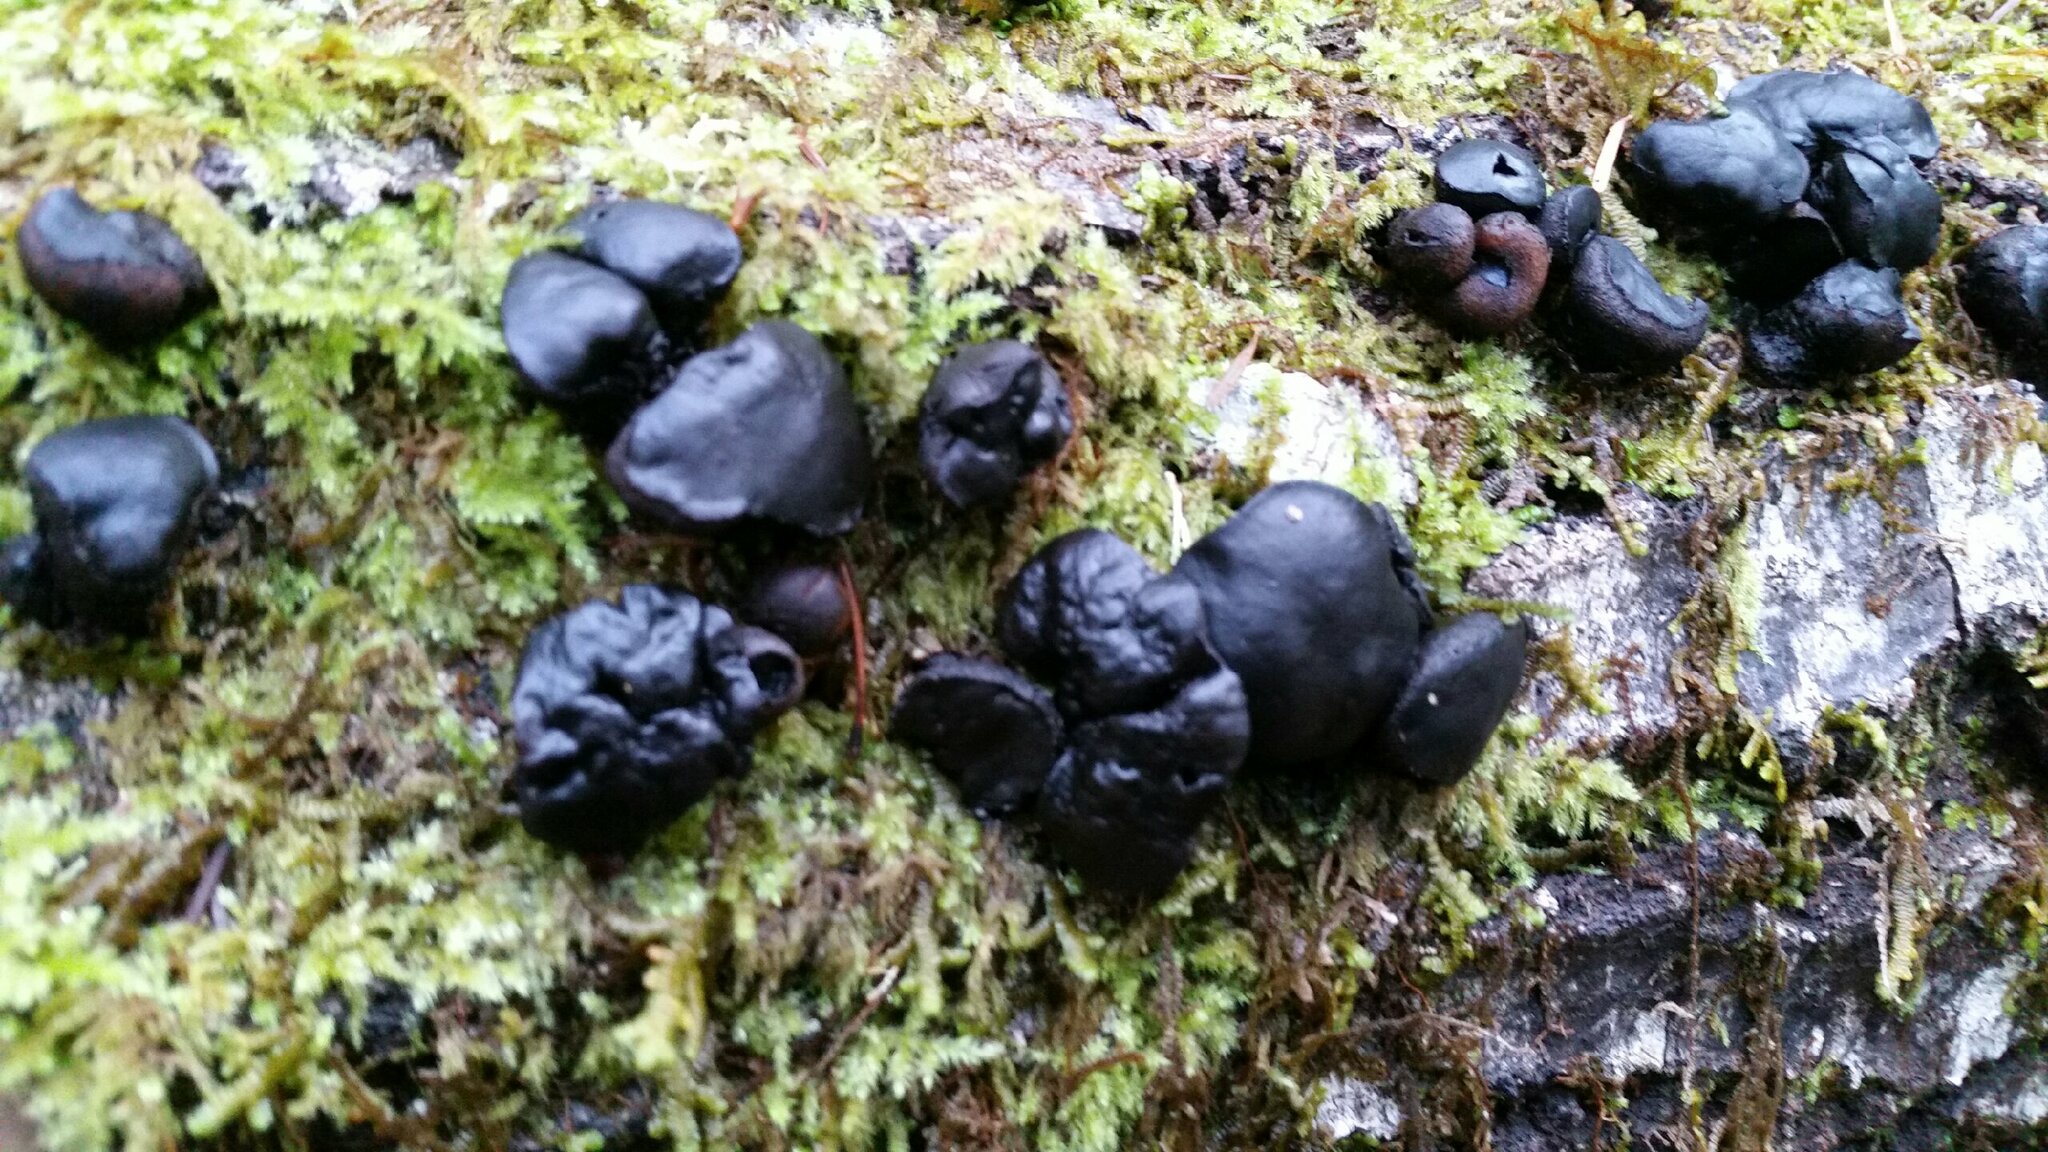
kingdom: Fungi
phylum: Ascomycota
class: Leotiomycetes
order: Phacidiales
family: Phacidiaceae
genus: Bulgaria
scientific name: Bulgaria inquinans
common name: Black bulgar
